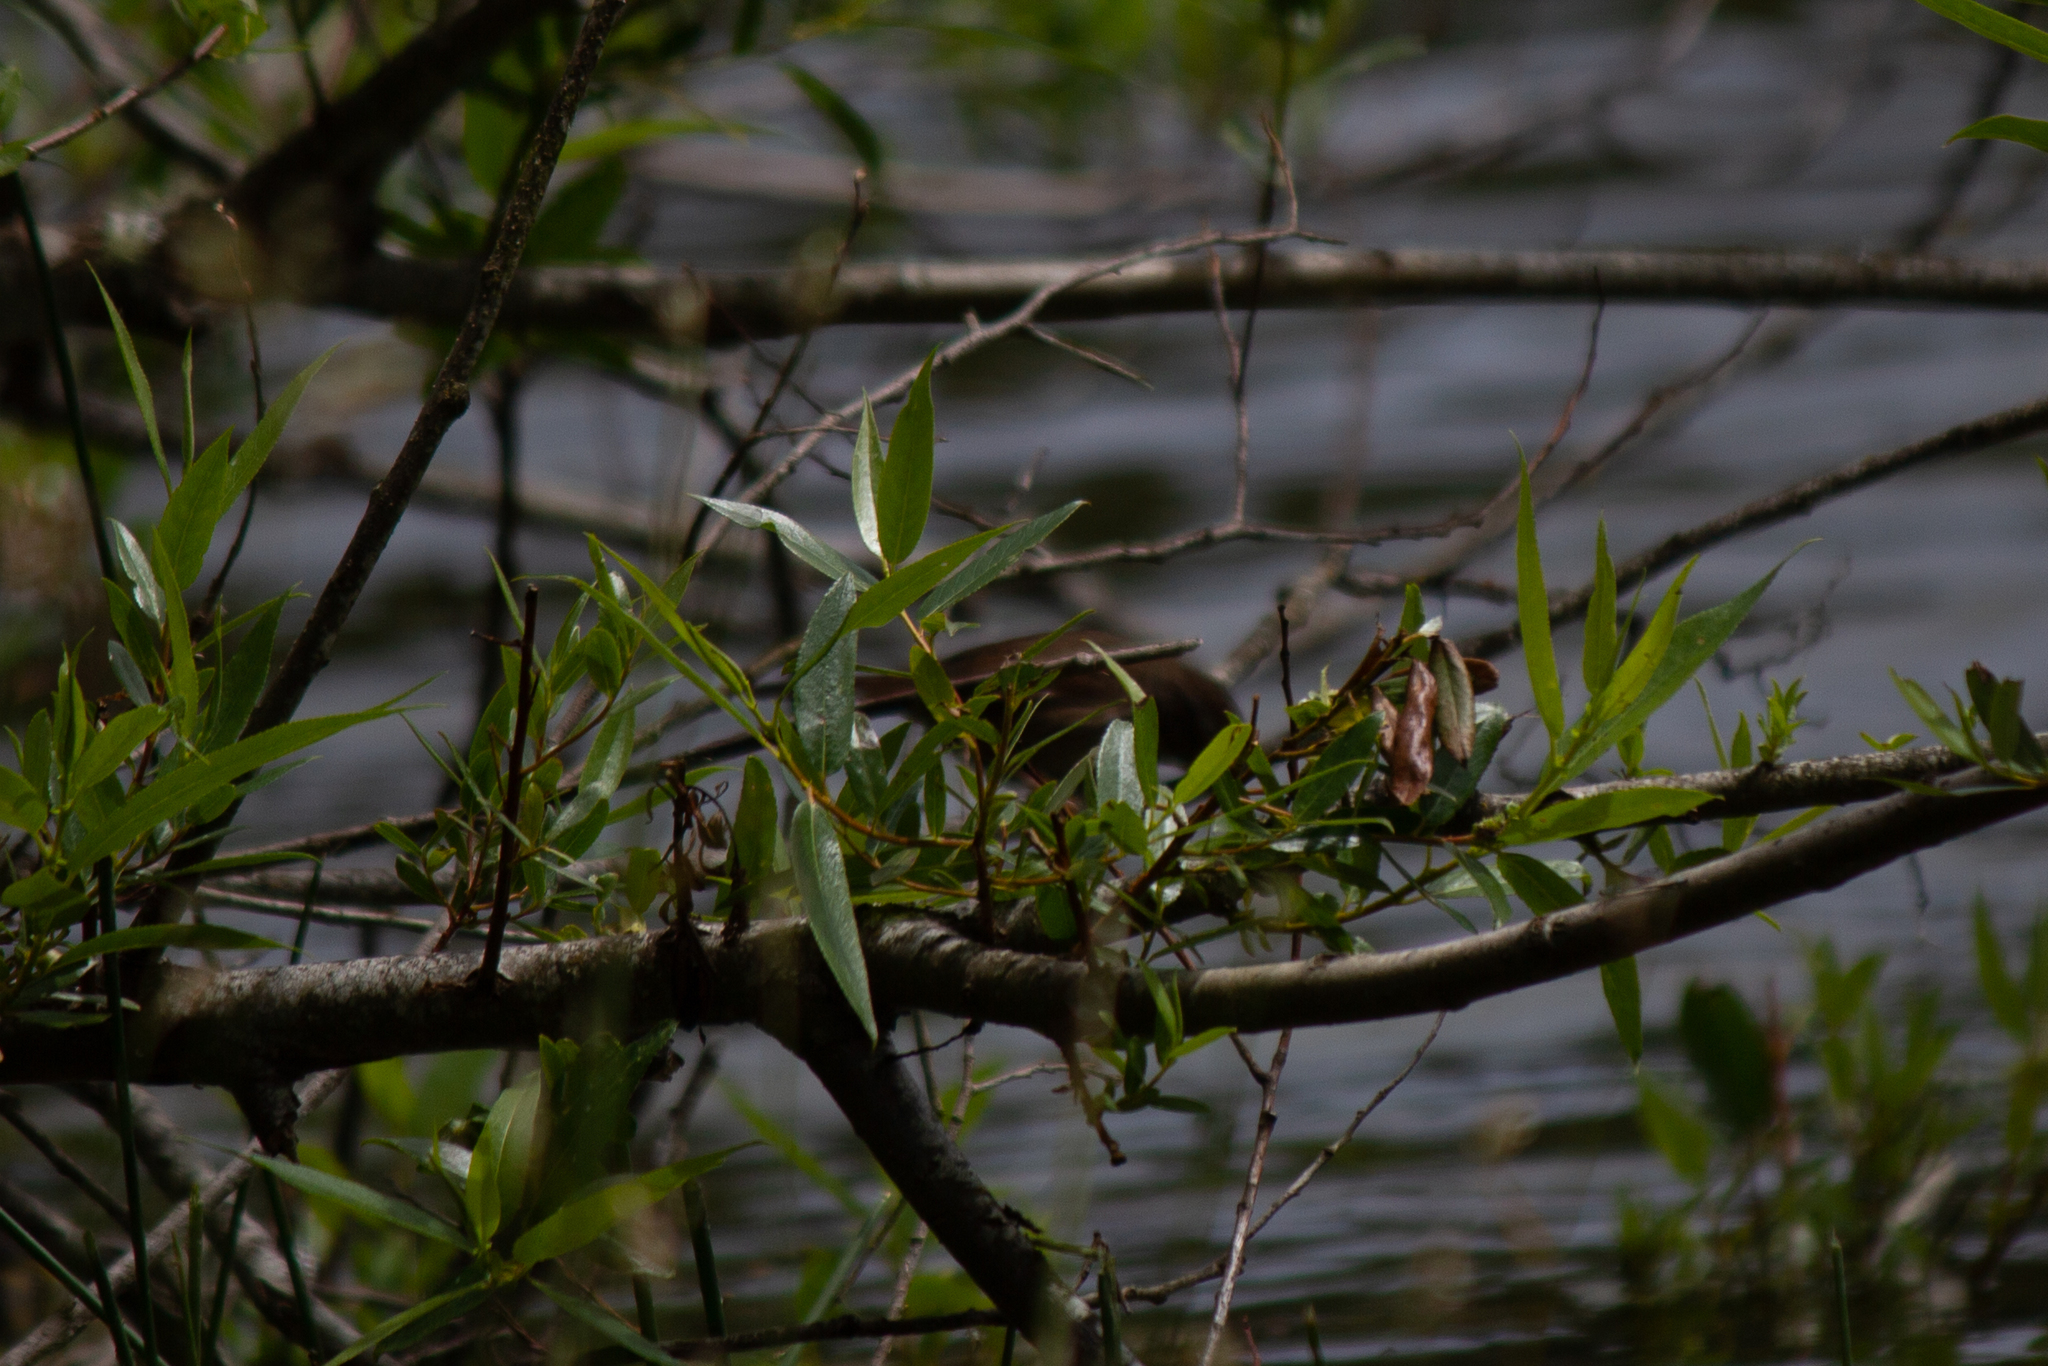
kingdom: Animalia
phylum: Chordata
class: Aves
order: Passeriformes
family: Passerellidae
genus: Melospiza
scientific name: Melospiza melodia
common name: Song sparrow
